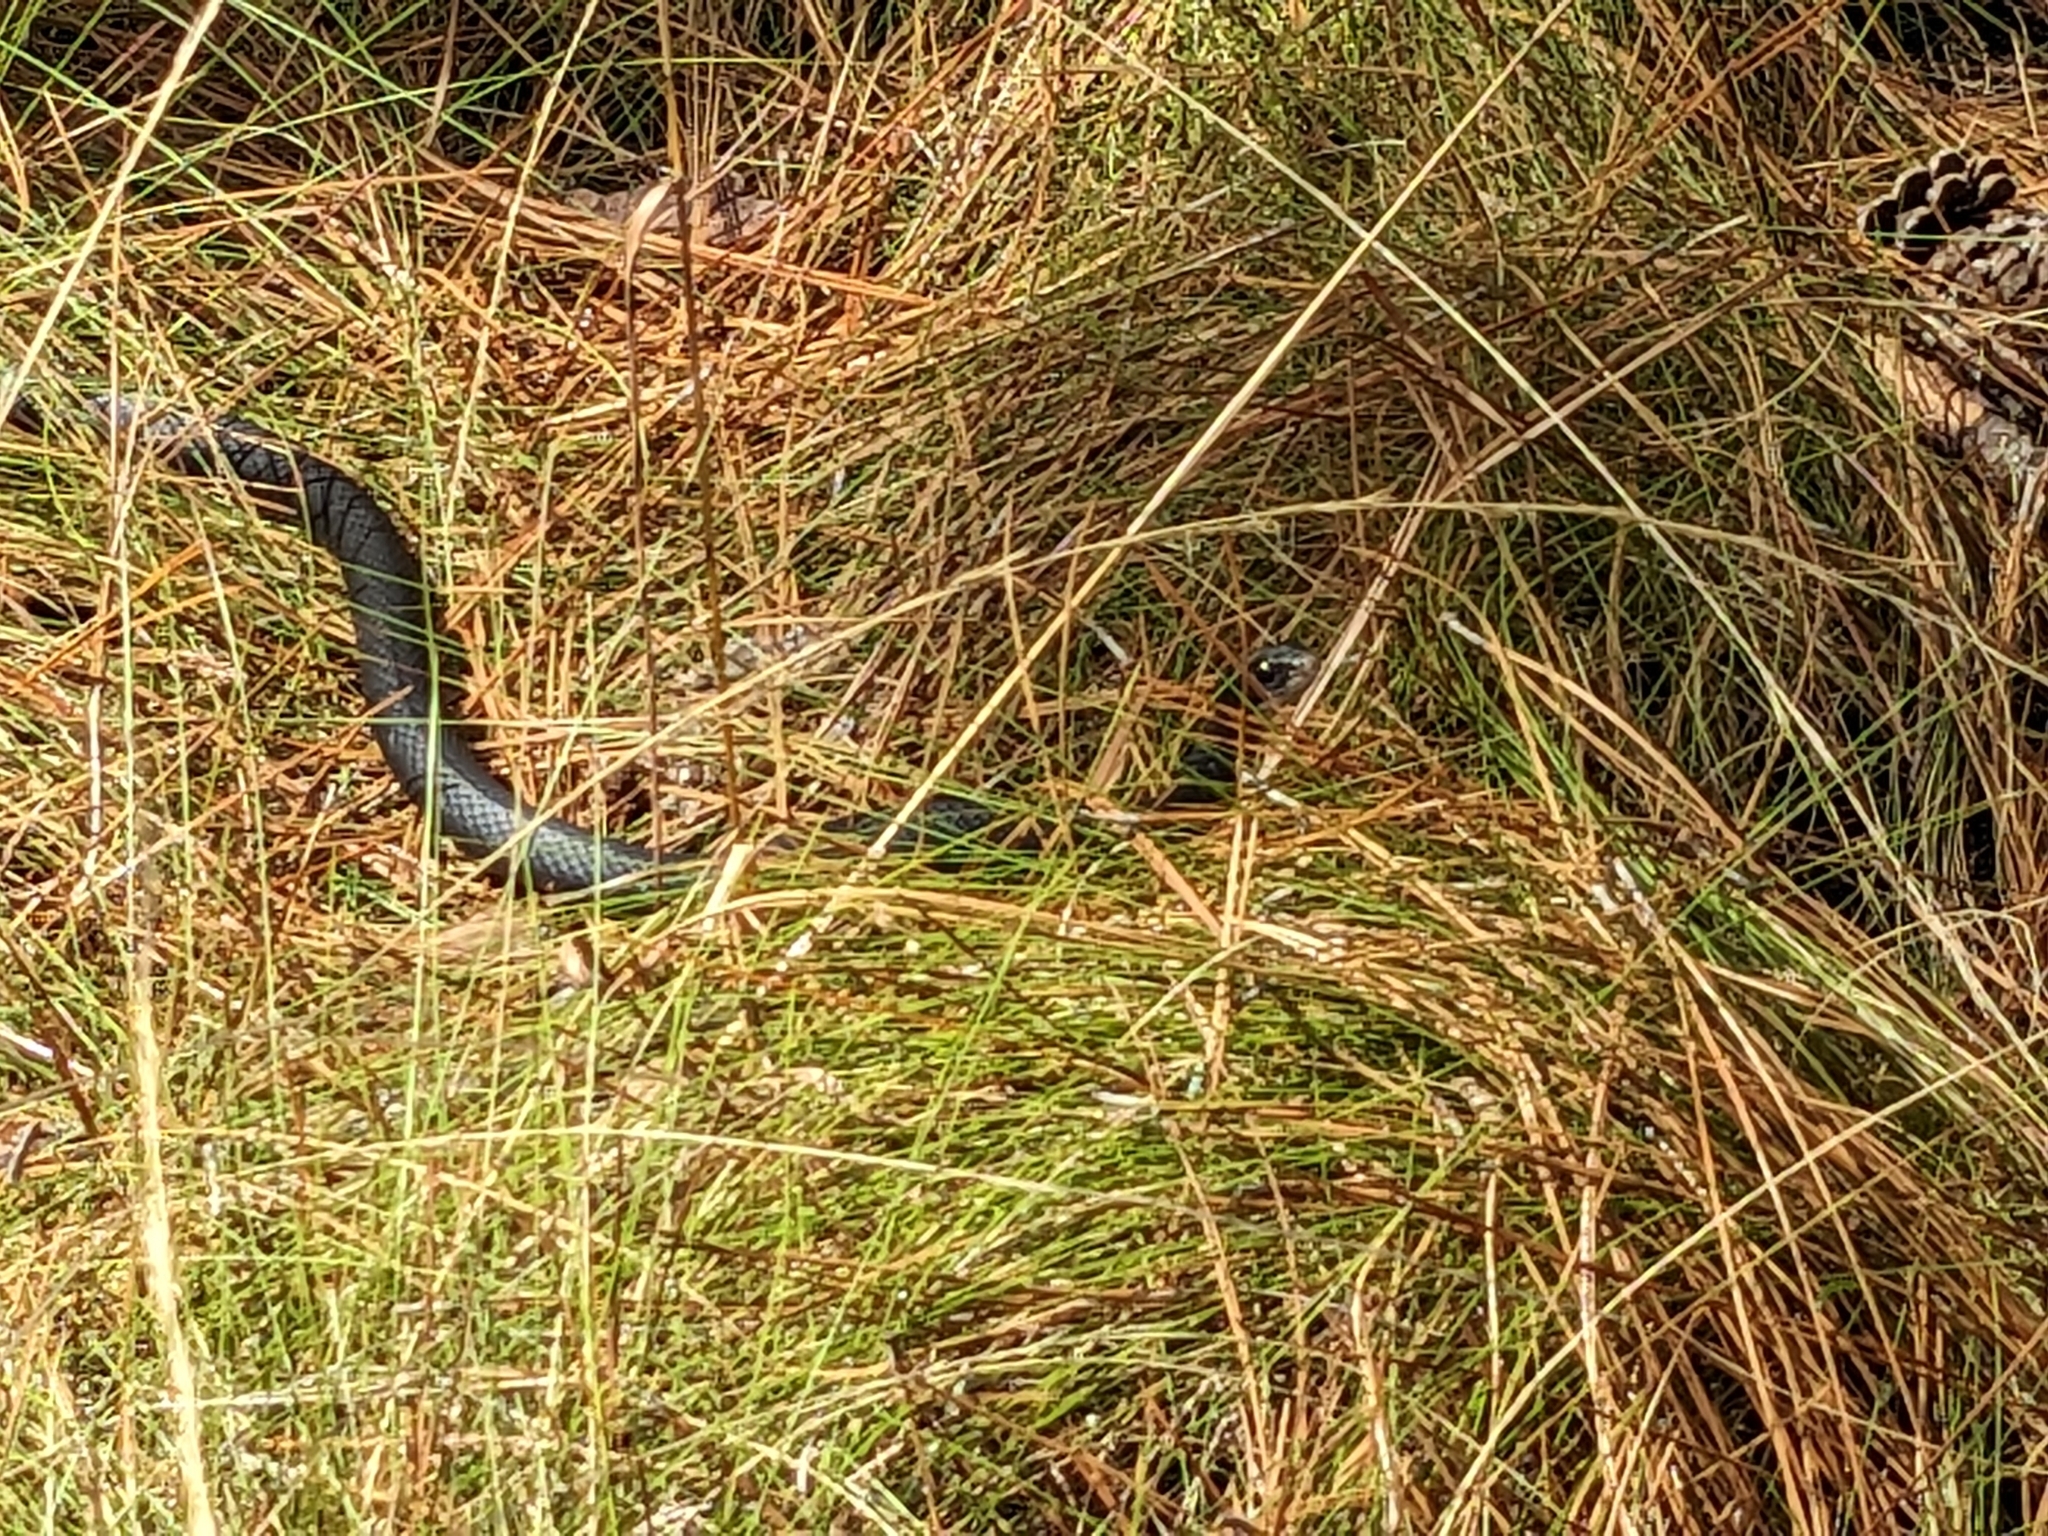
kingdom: Animalia
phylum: Chordata
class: Squamata
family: Colubridae
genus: Coluber
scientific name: Coluber constrictor
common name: Eastern racer
